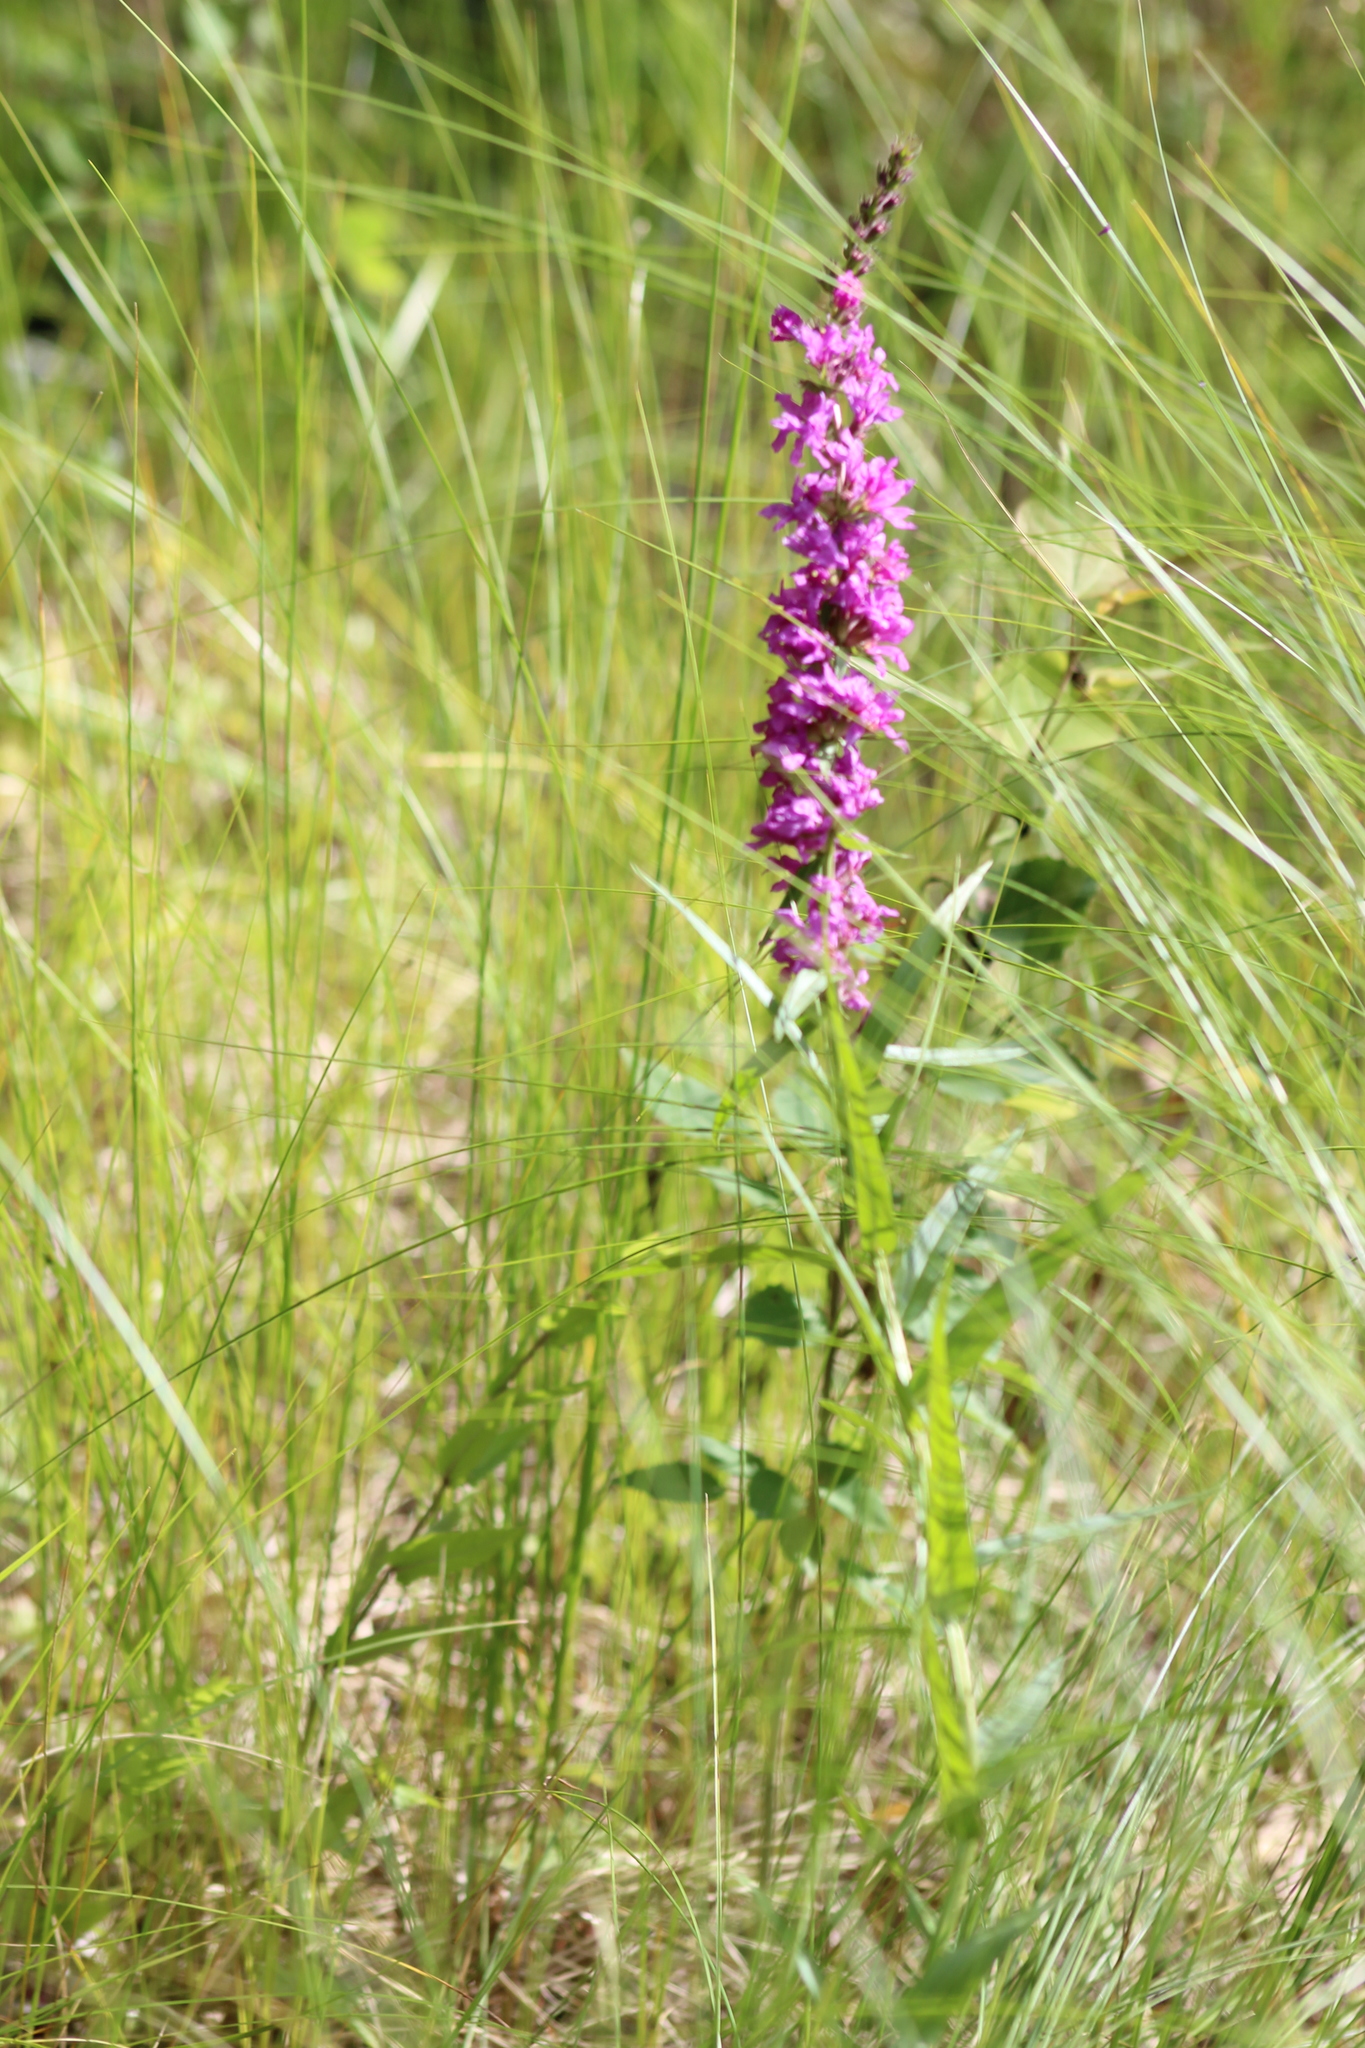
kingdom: Plantae
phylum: Tracheophyta
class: Magnoliopsida
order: Myrtales
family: Lythraceae
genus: Lythrum
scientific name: Lythrum salicaria
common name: Purple loosestrife
